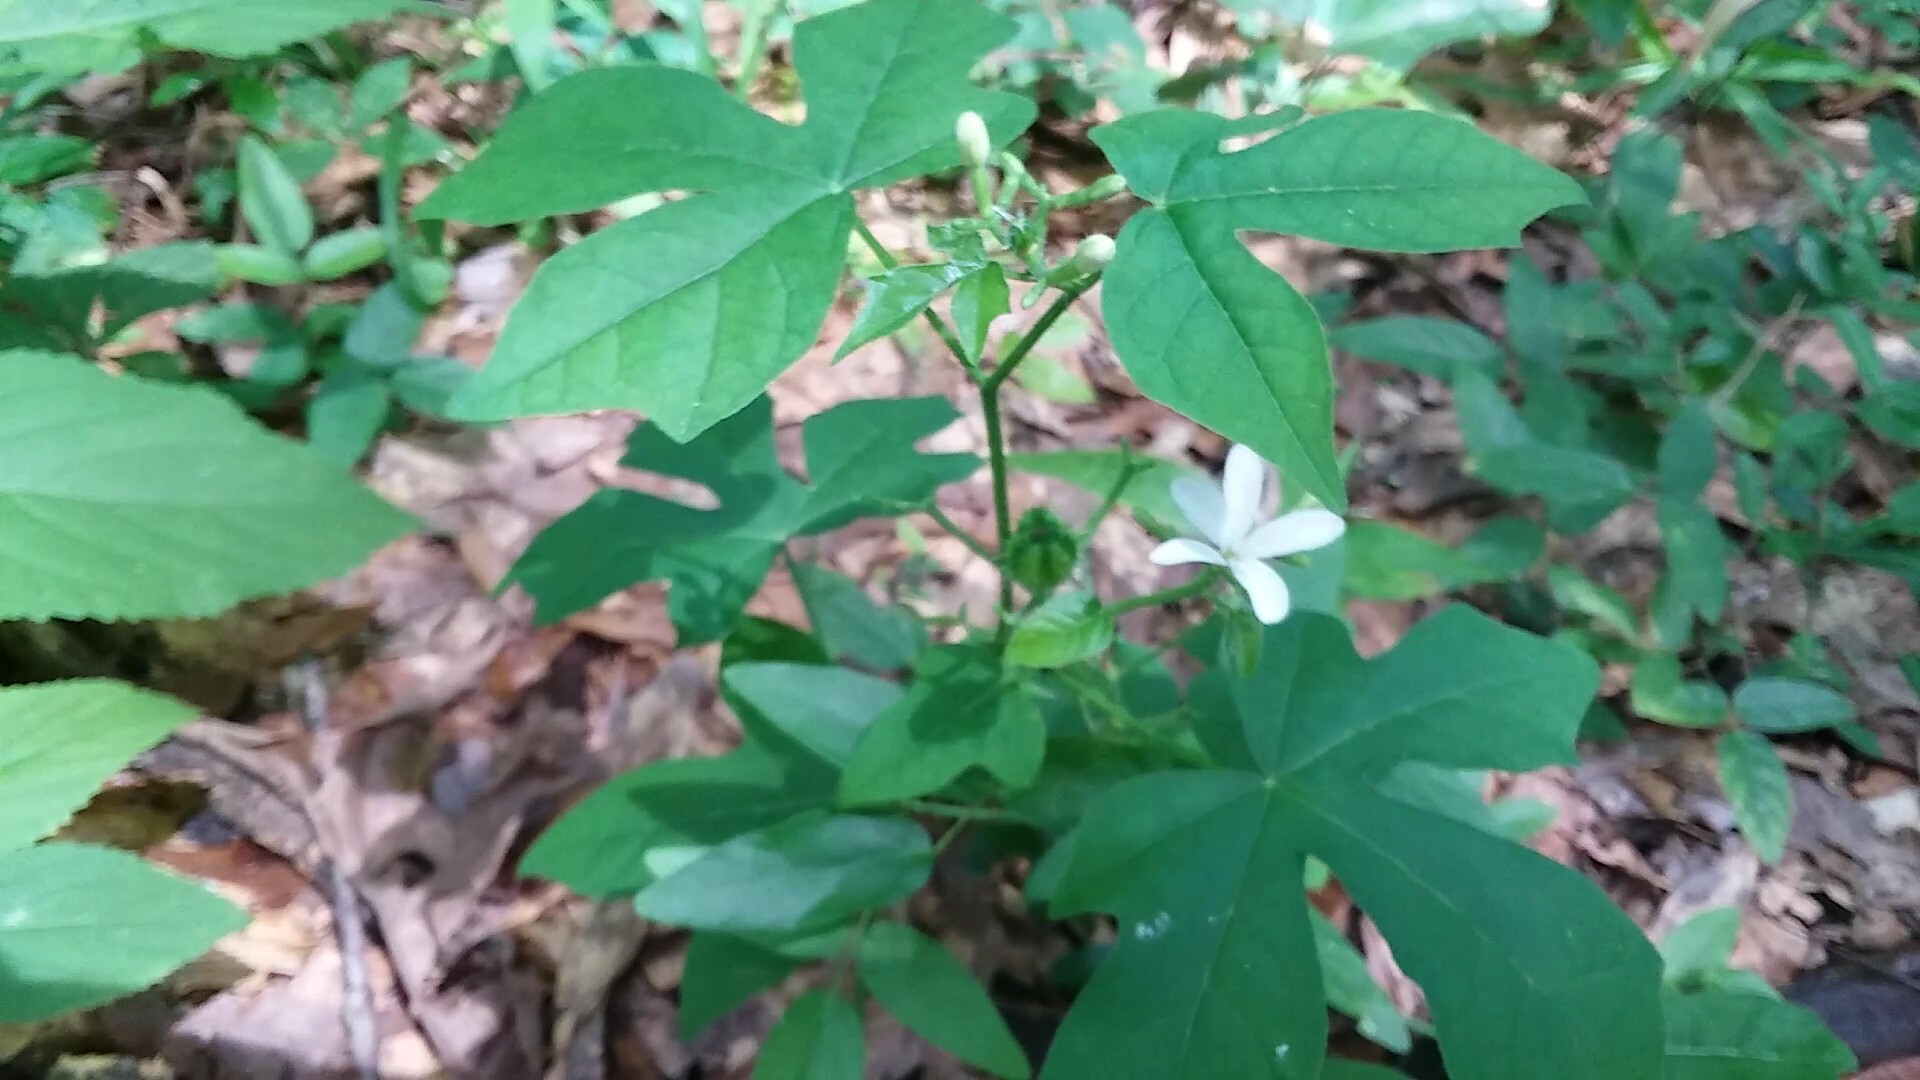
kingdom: Plantae
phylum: Tracheophyta
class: Magnoliopsida
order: Malpighiales
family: Euphorbiaceae
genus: Cnidoscolus
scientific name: Cnidoscolus stimulosus
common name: Bull-nettle
